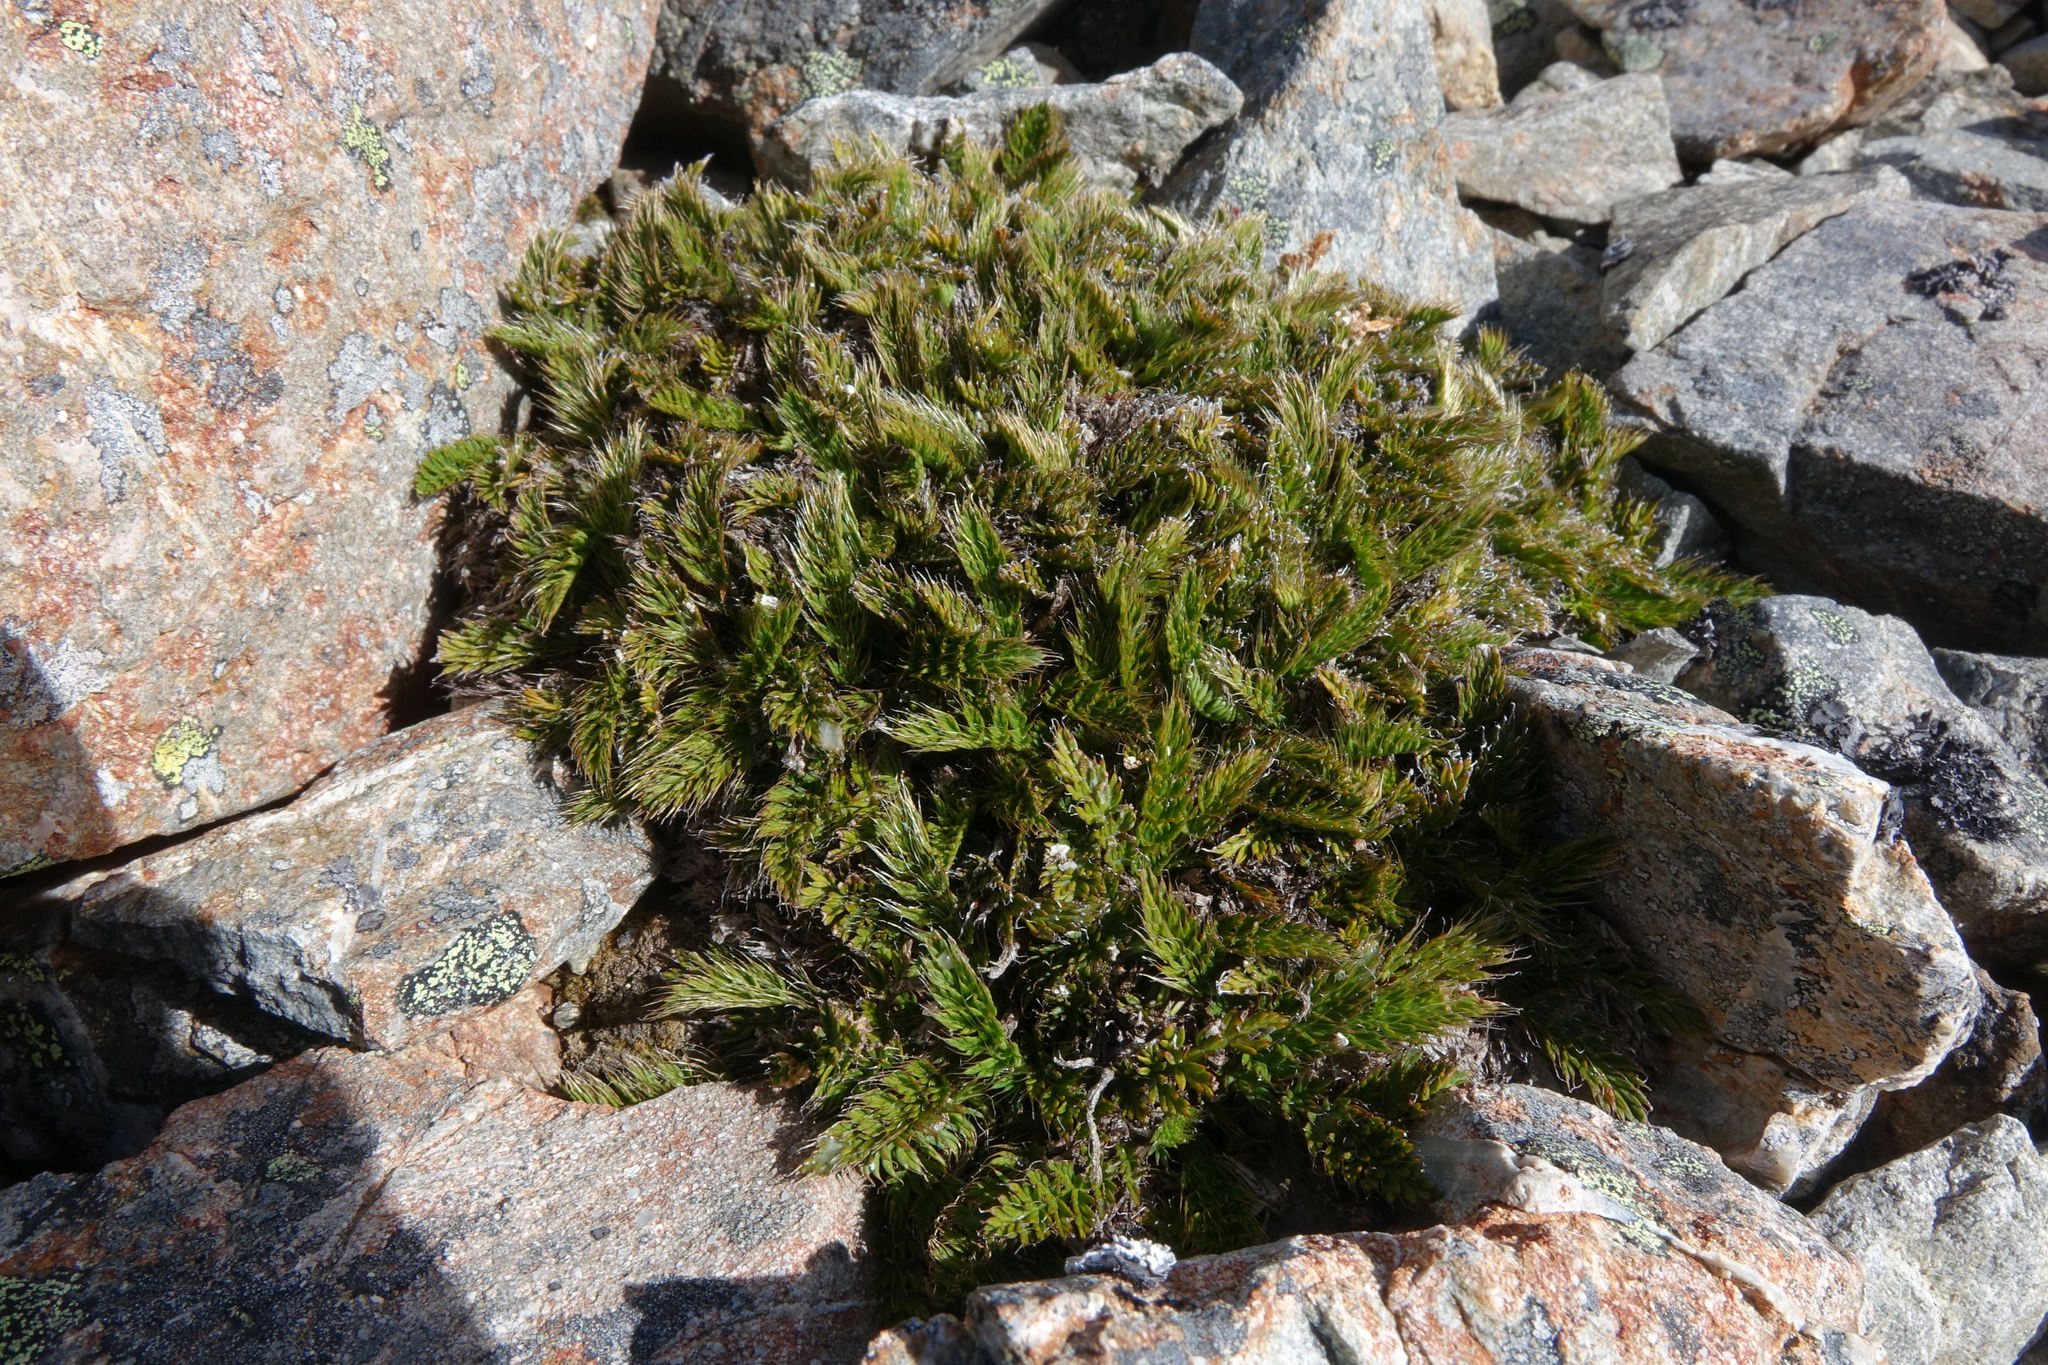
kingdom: Plantae
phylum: Tracheophyta
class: Magnoliopsida
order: Apiales
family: Apiaceae
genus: Anisotome
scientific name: Anisotome flexuosa
